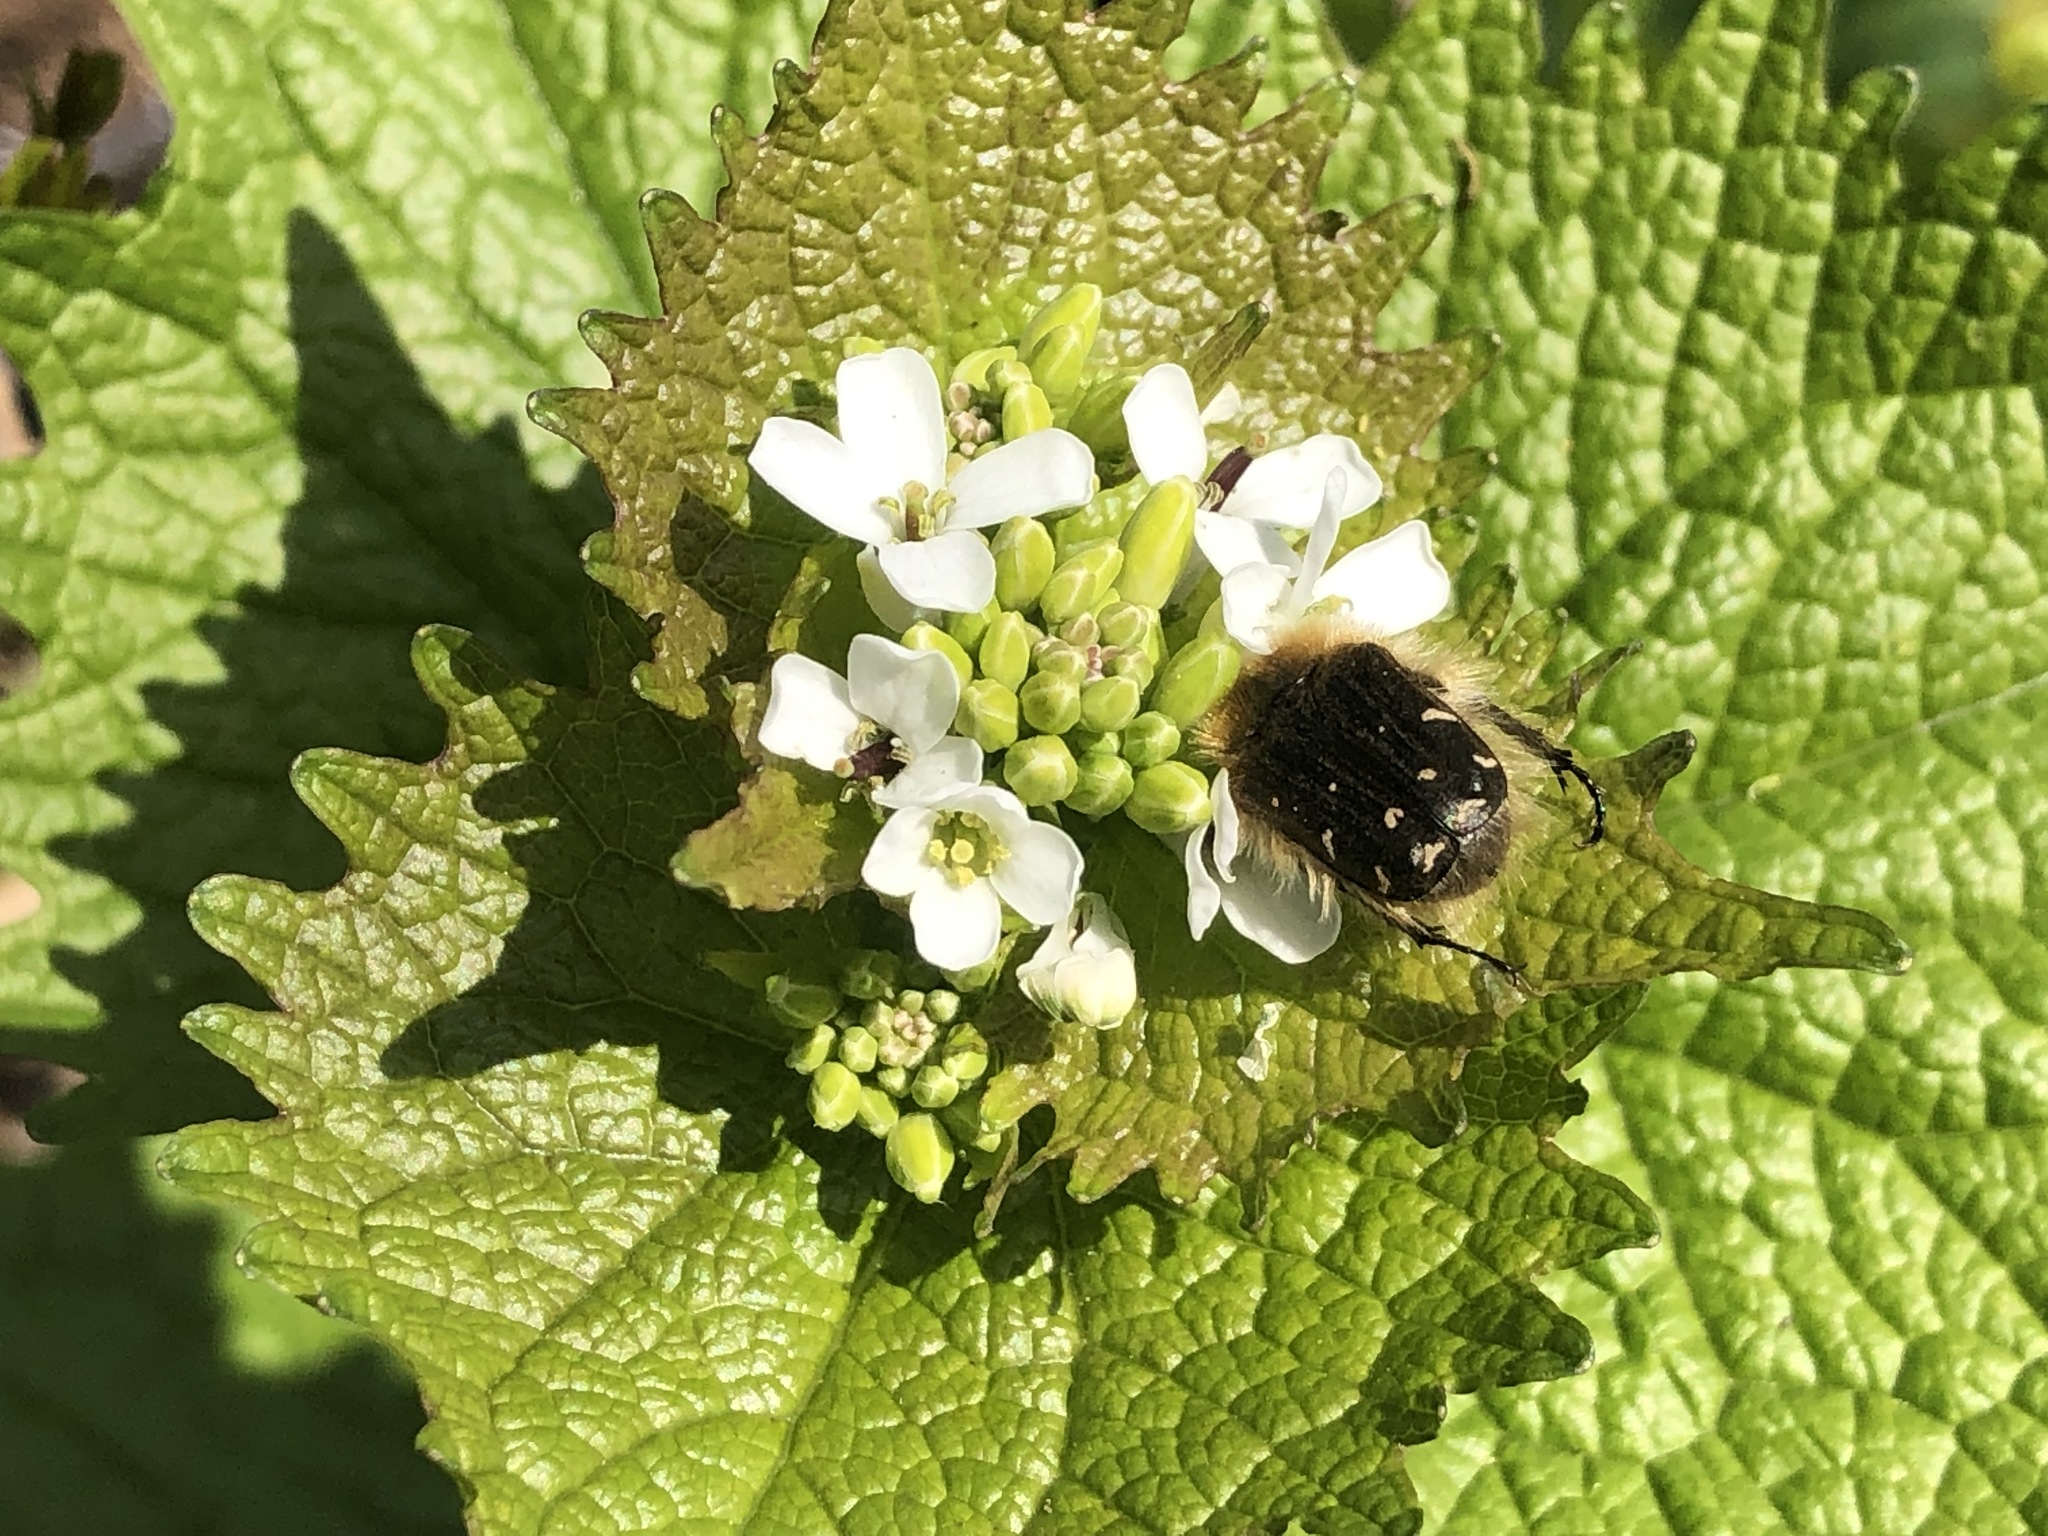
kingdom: Animalia
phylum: Arthropoda
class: Insecta
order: Coleoptera
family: Scarabaeidae
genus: Tropinota
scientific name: Tropinota hirta
